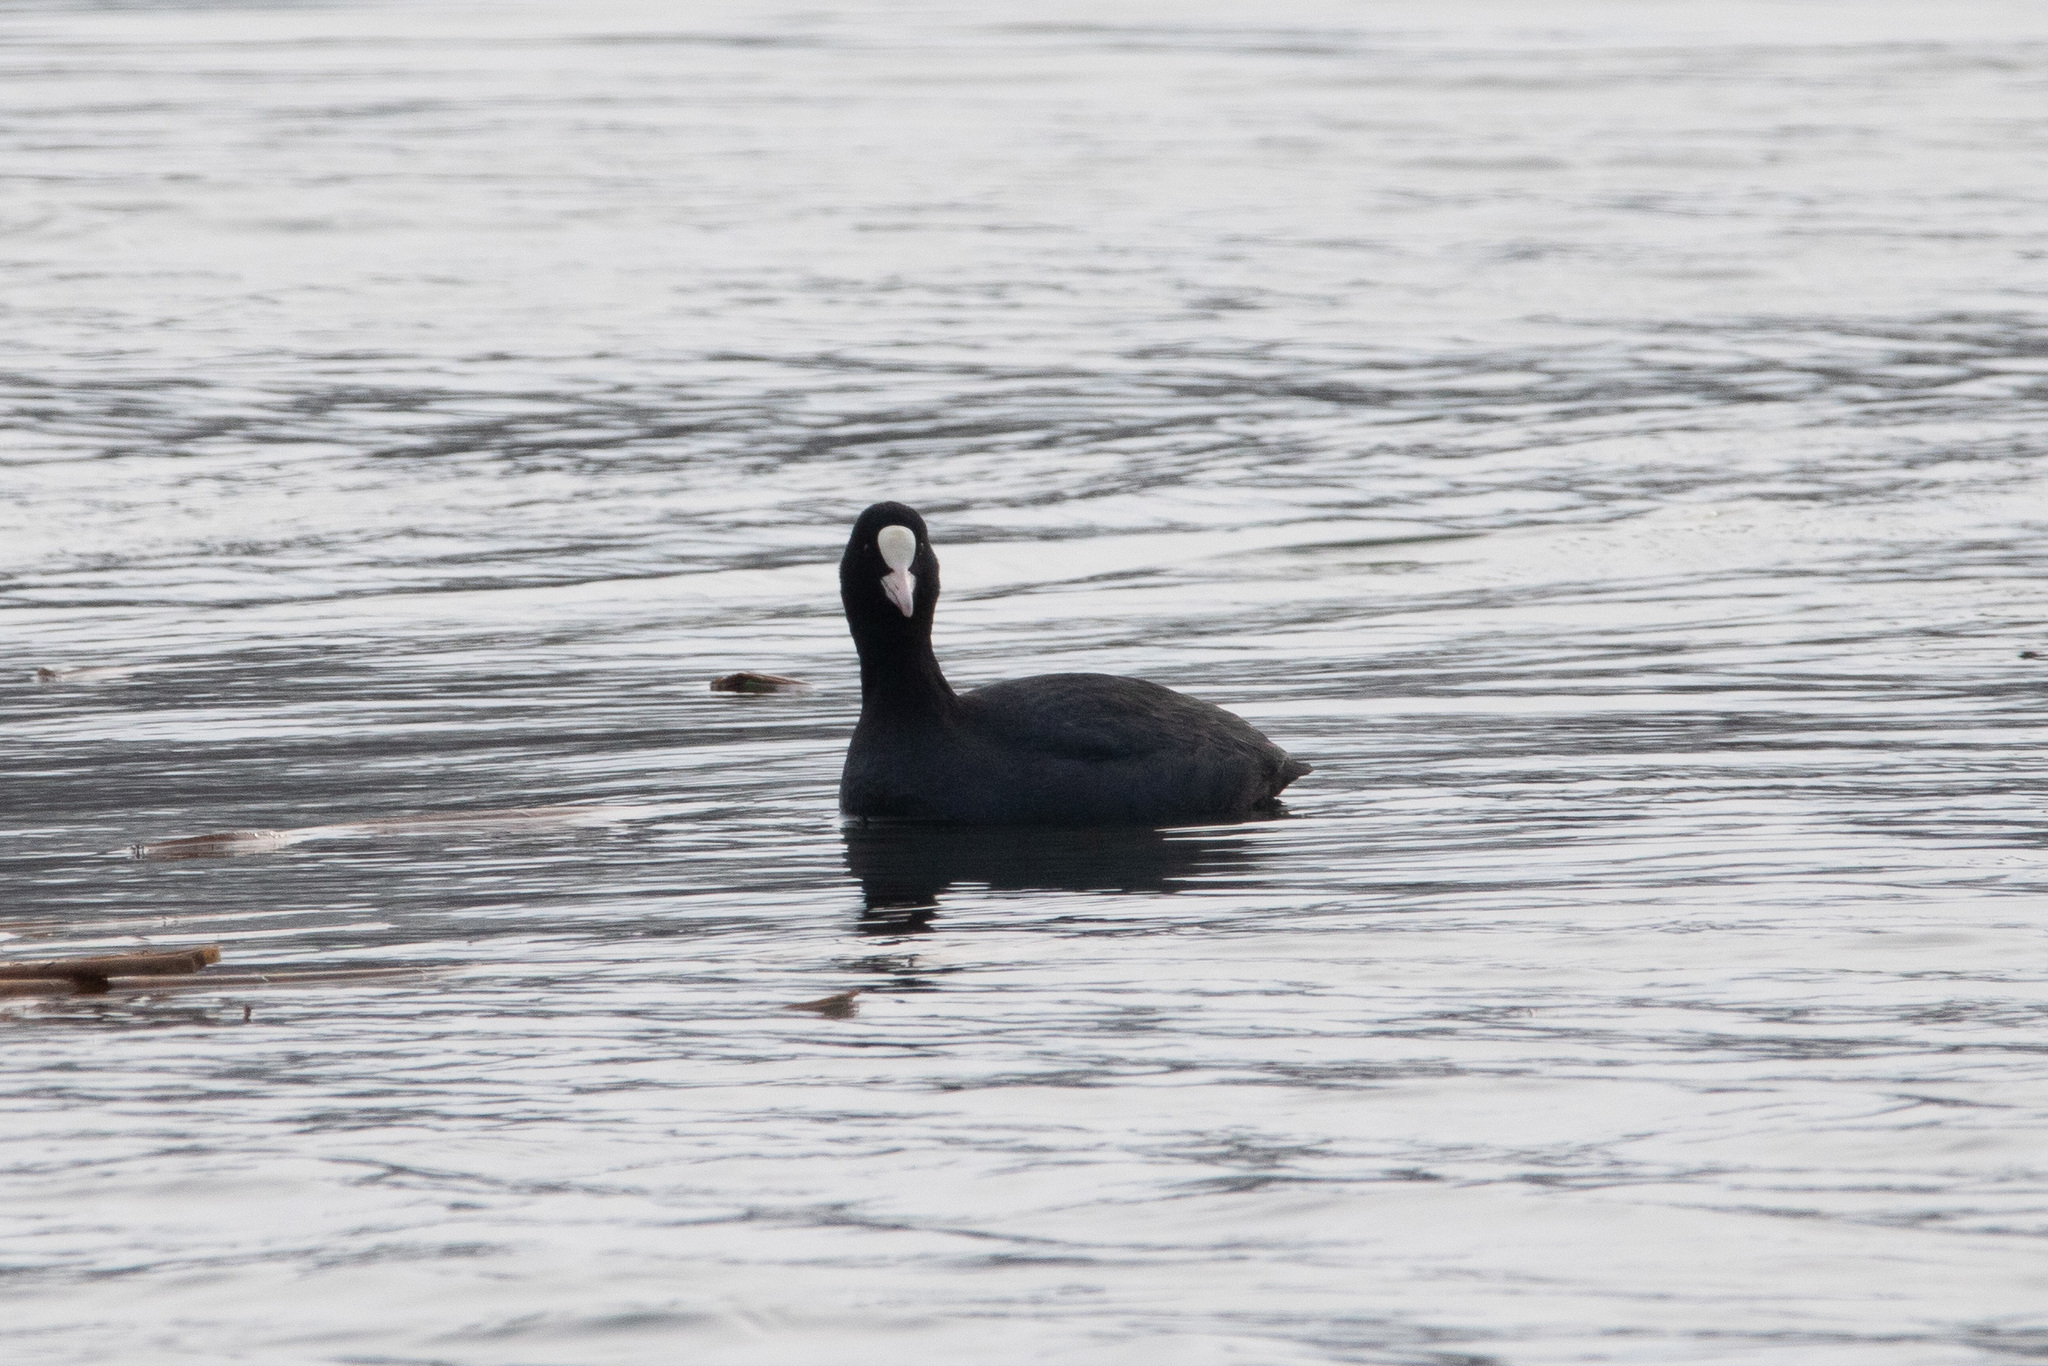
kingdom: Animalia
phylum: Chordata
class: Aves
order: Gruiformes
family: Rallidae
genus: Fulica
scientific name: Fulica atra
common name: Eurasian coot
